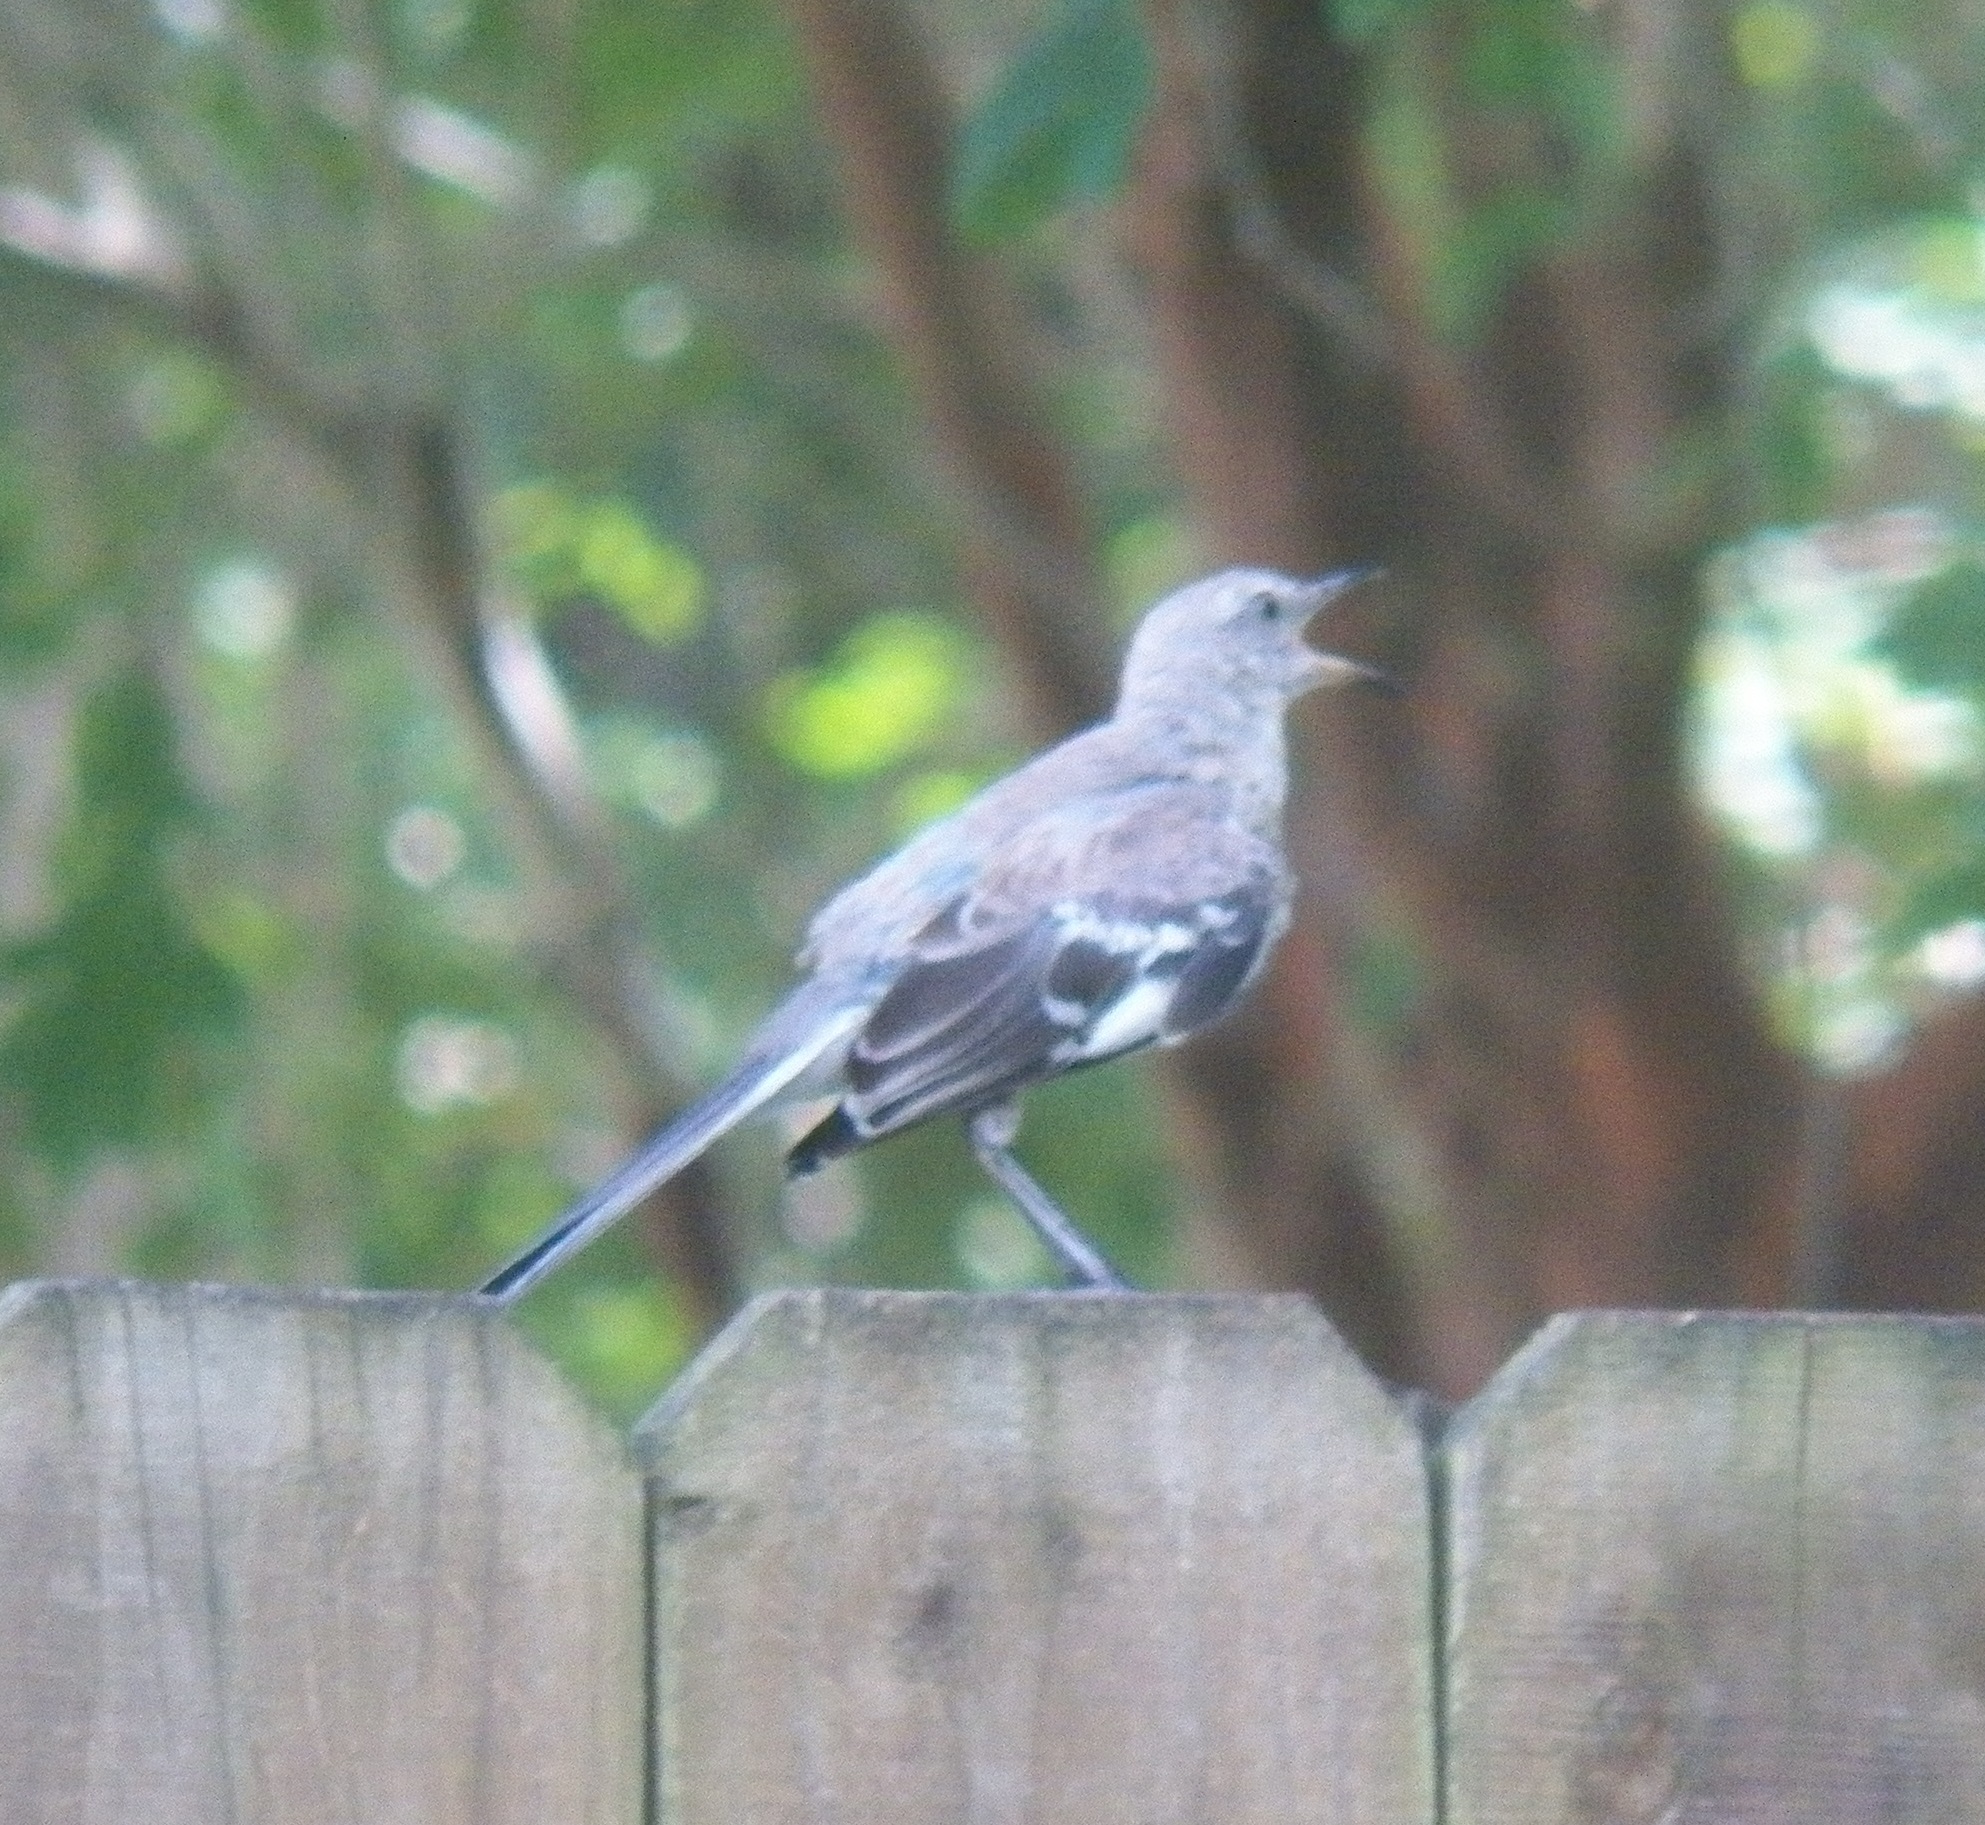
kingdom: Animalia
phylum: Chordata
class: Aves
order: Passeriformes
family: Mimidae
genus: Mimus
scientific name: Mimus polyglottos
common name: Northern mockingbird
